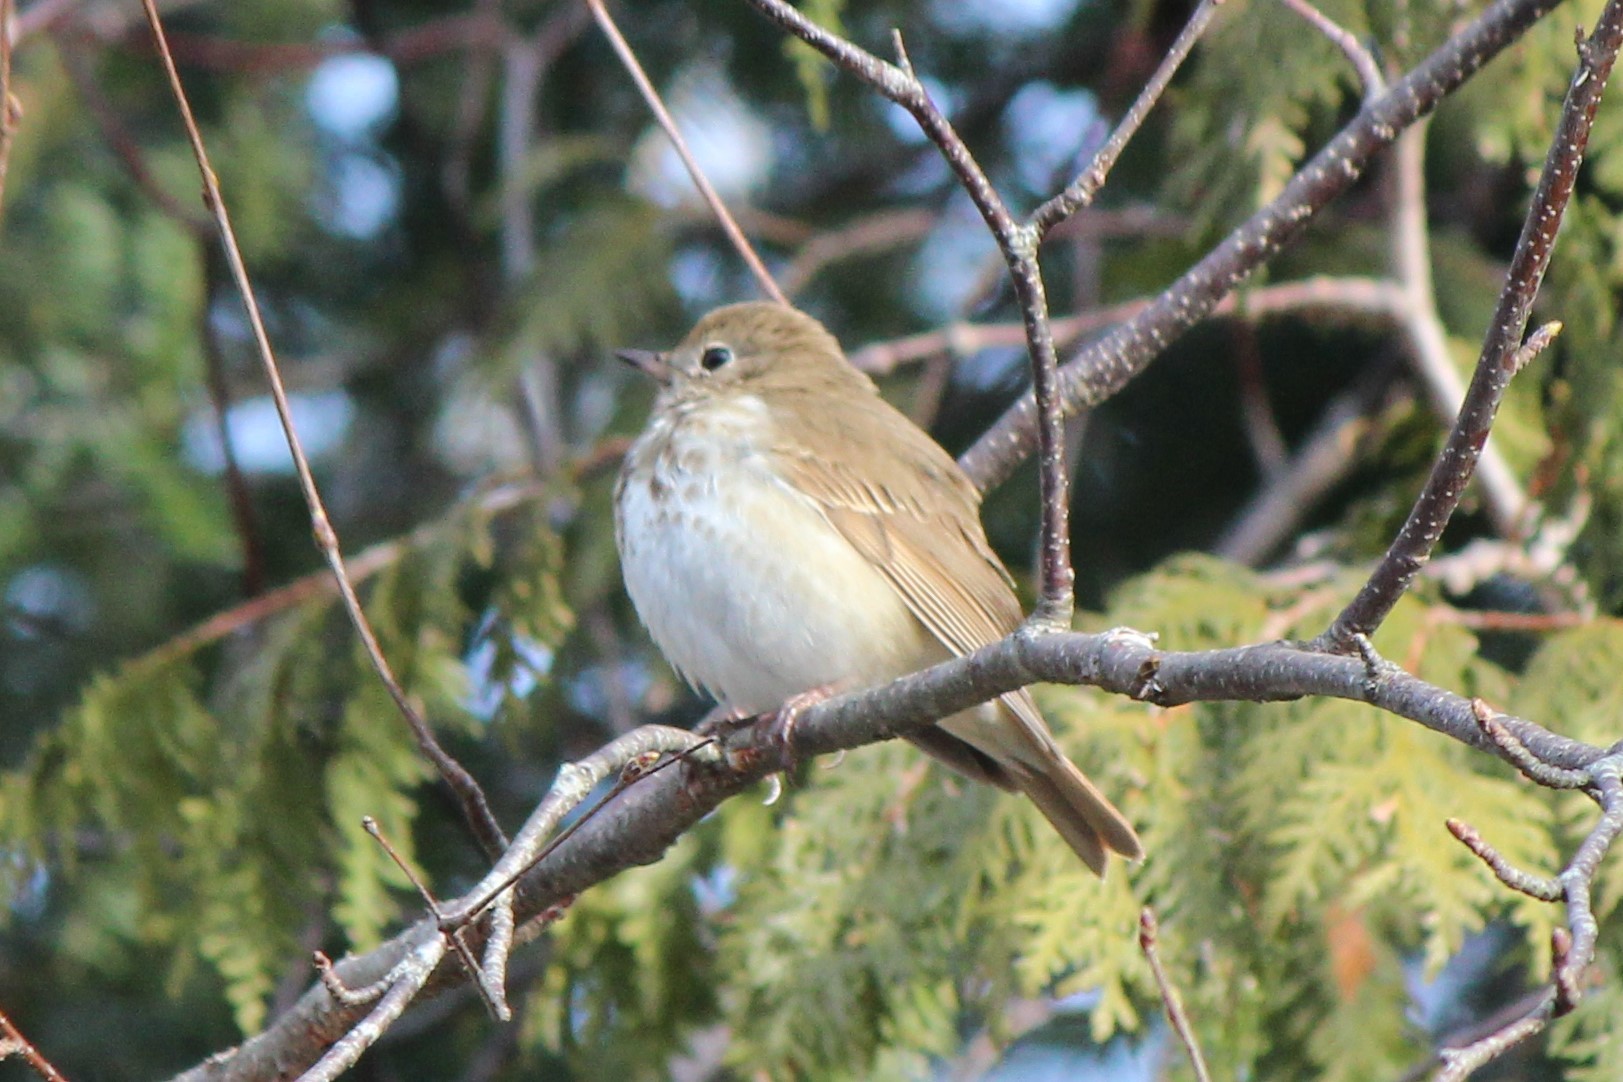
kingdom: Animalia
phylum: Chordata
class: Aves
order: Passeriformes
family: Turdidae
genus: Catharus
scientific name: Catharus guttatus
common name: Hermit thrush
